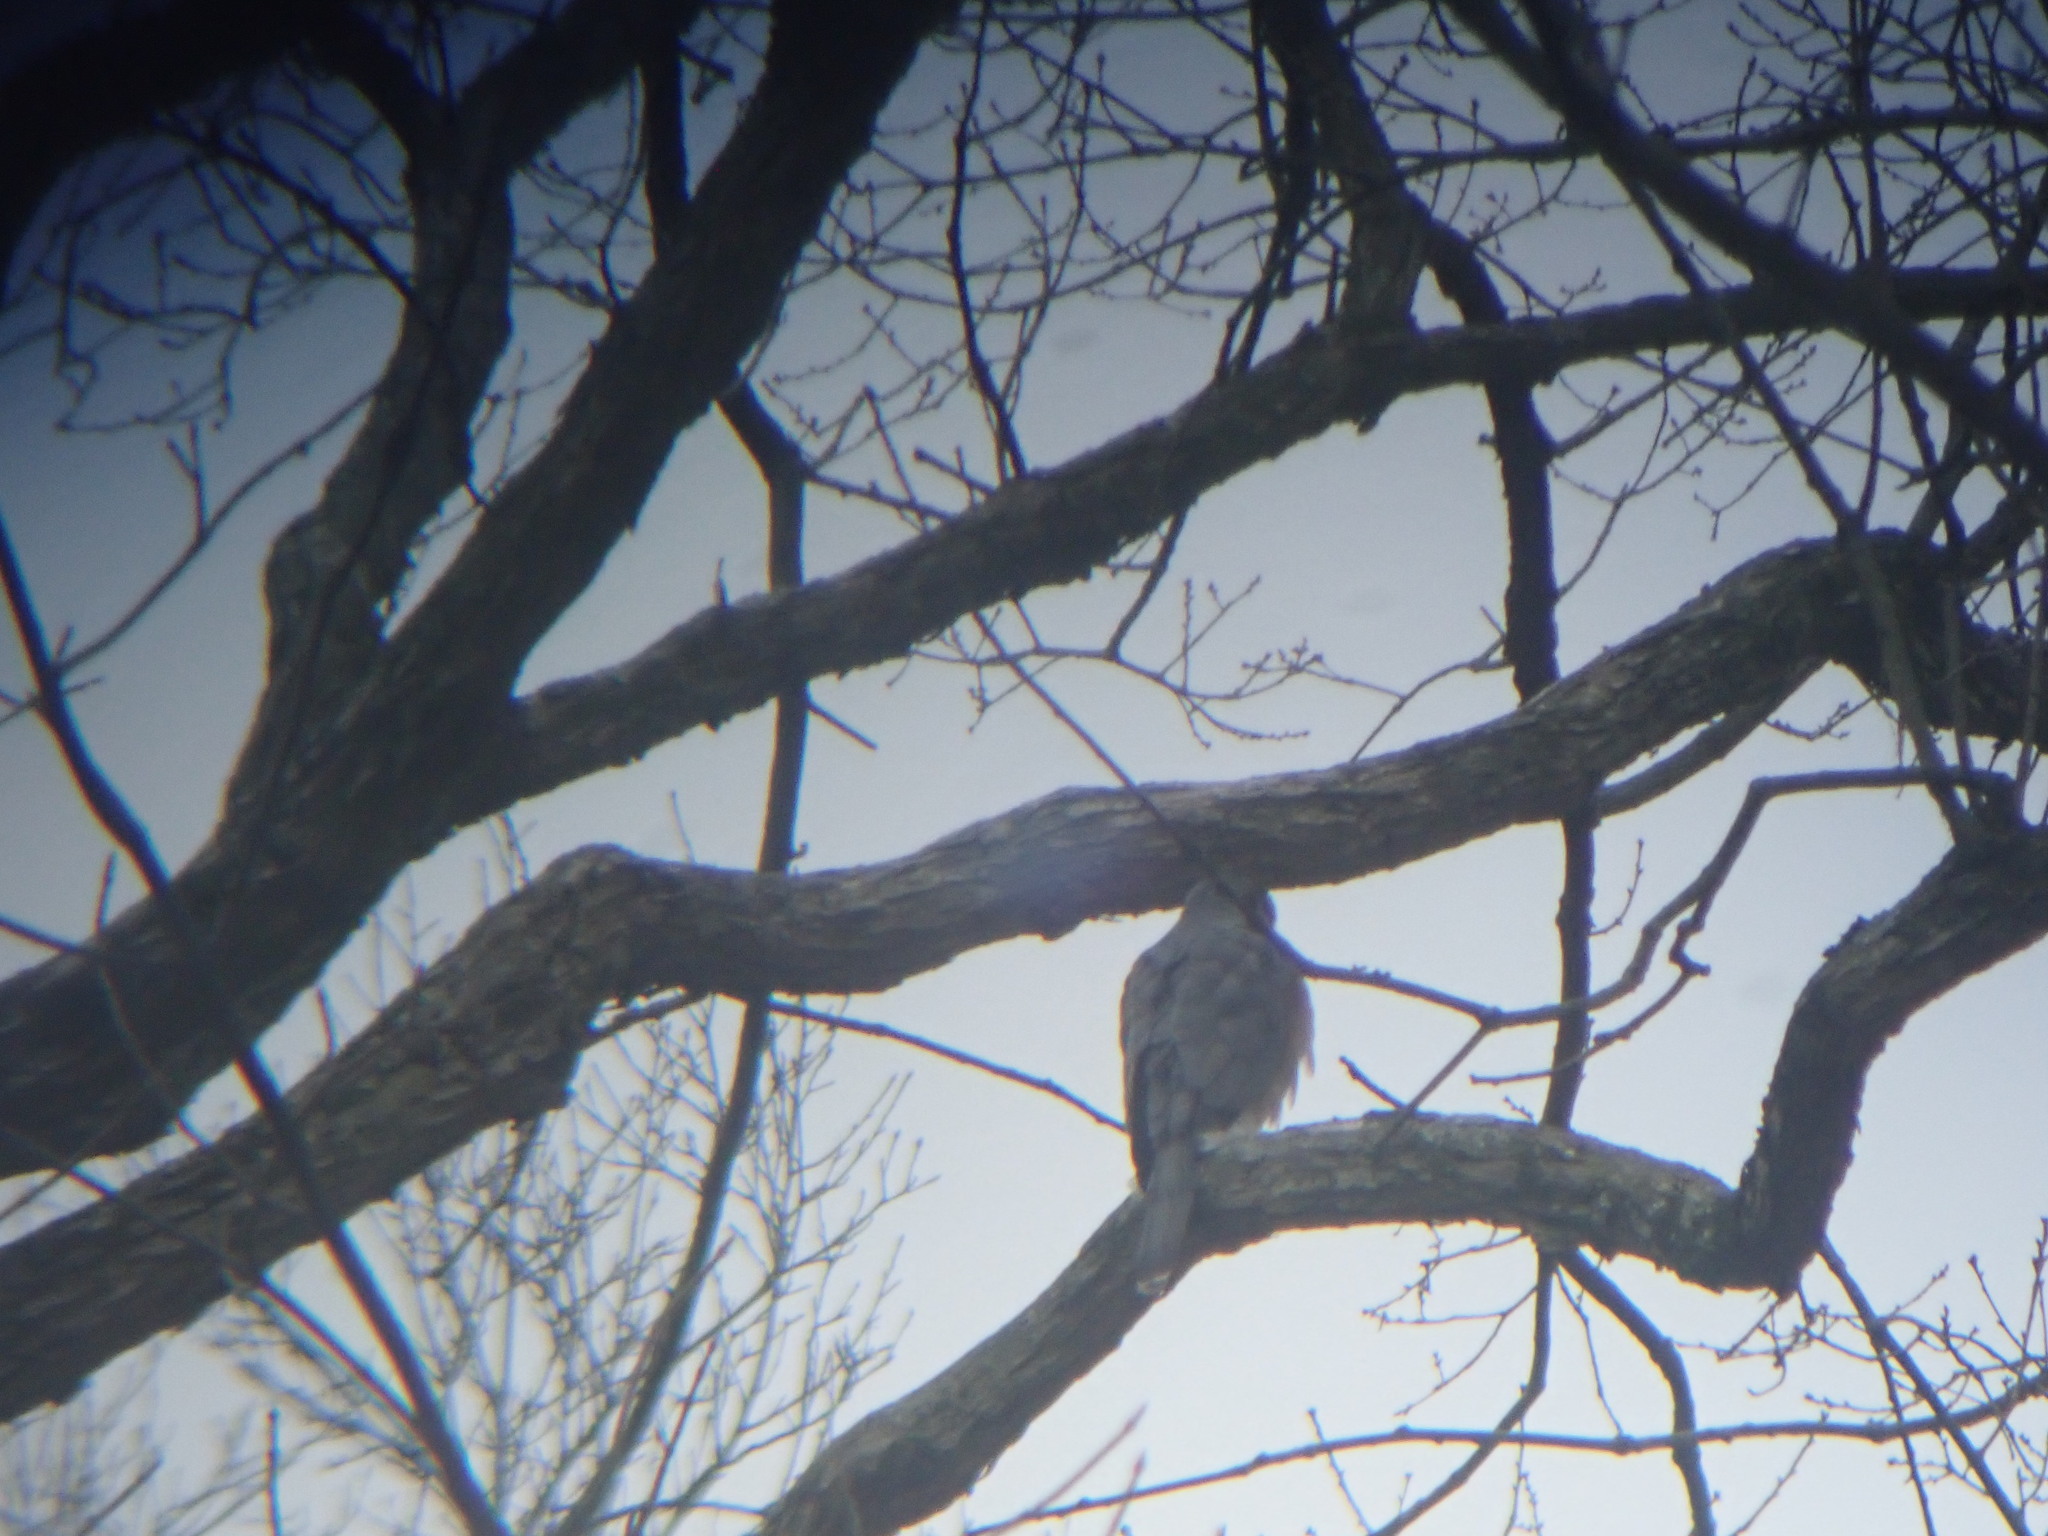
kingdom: Animalia
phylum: Chordata
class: Aves
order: Accipitriformes
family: Accipitridae
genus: Accipiter
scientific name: Accipiter cooperii
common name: Cooper's hawk
